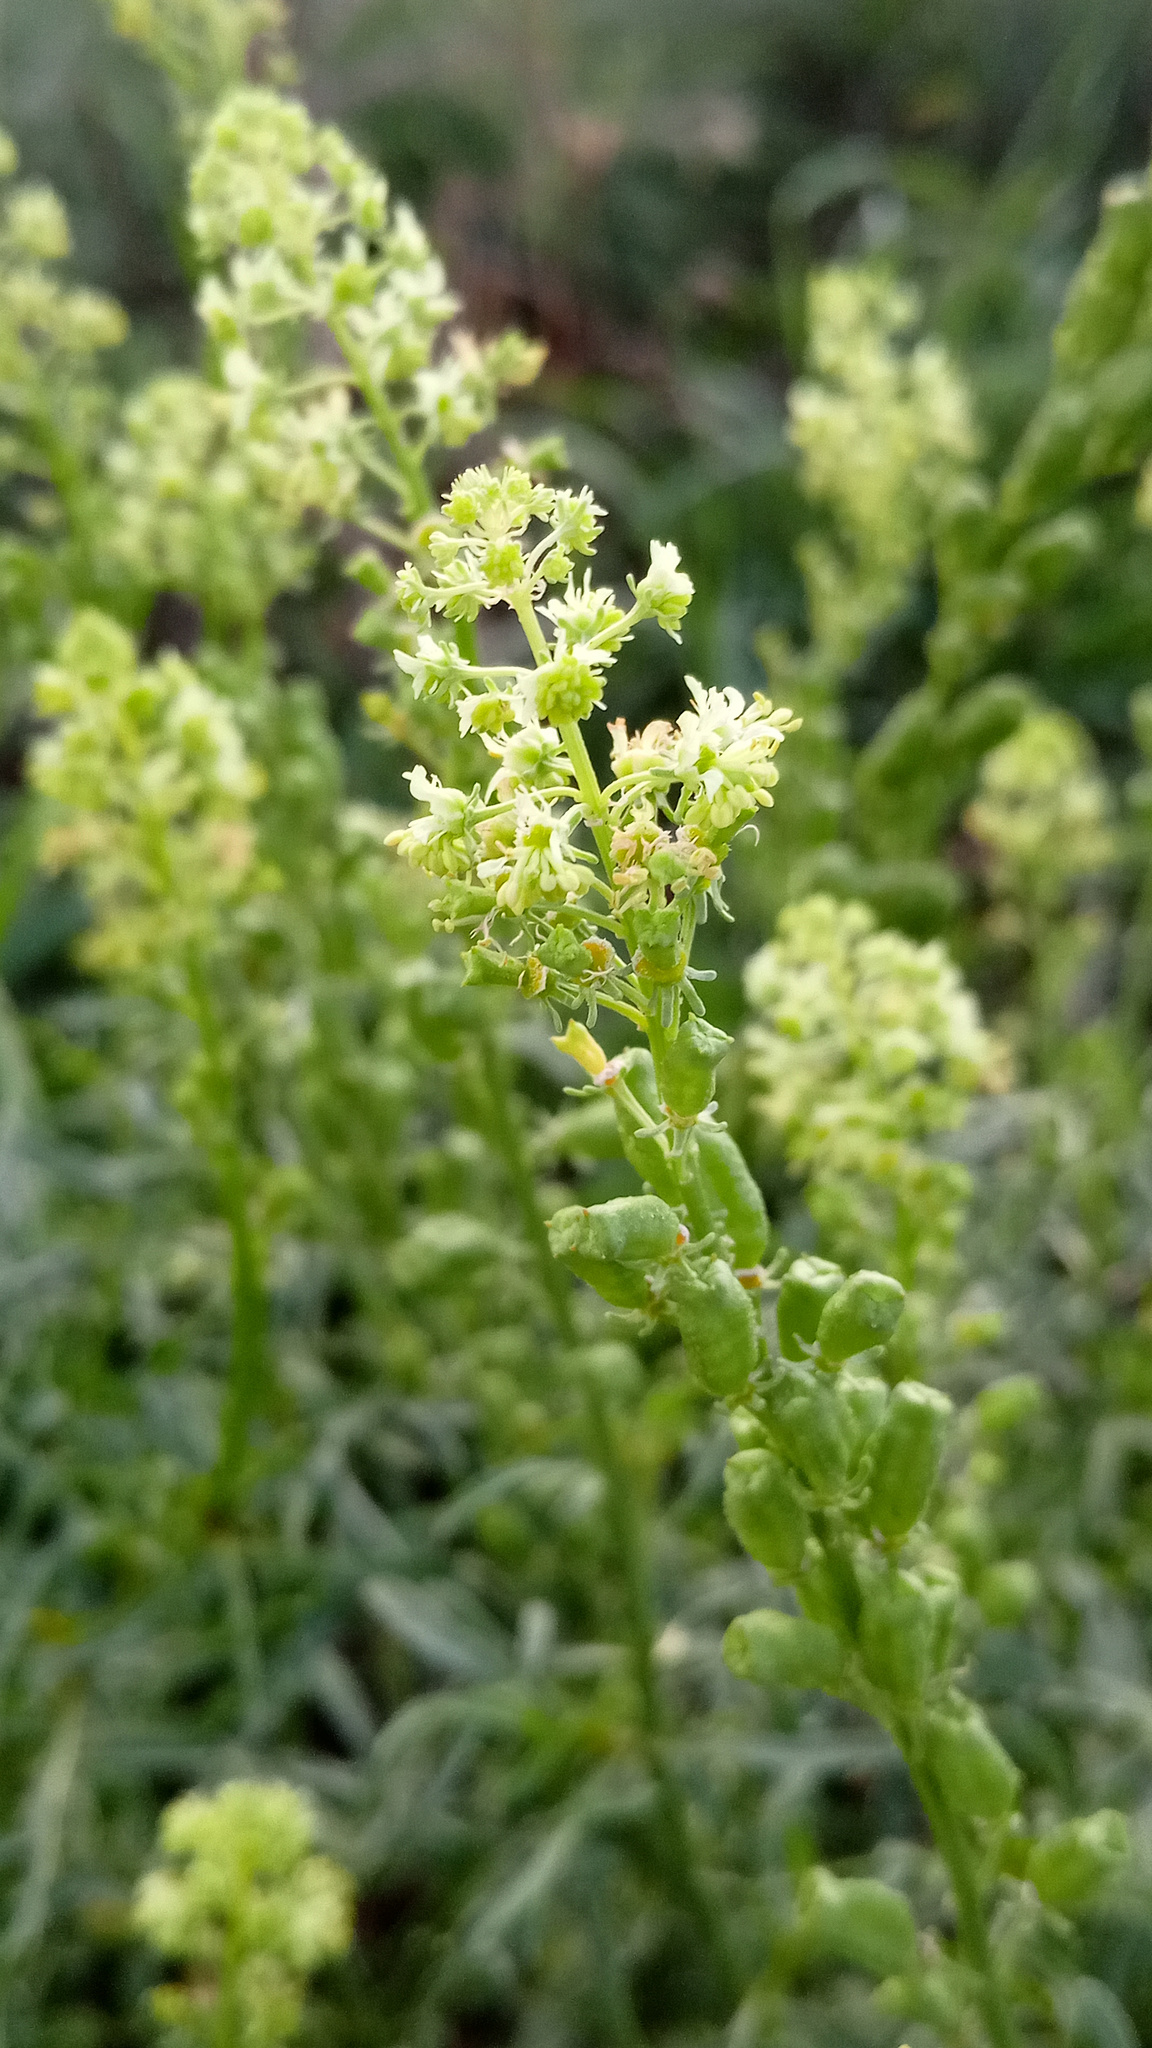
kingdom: Plantae
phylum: Tracheophyta
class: Magnoliopsida
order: Brassicales
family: Resedaceae
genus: Reseda
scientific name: Reseda lutea
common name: Wild mignonette
